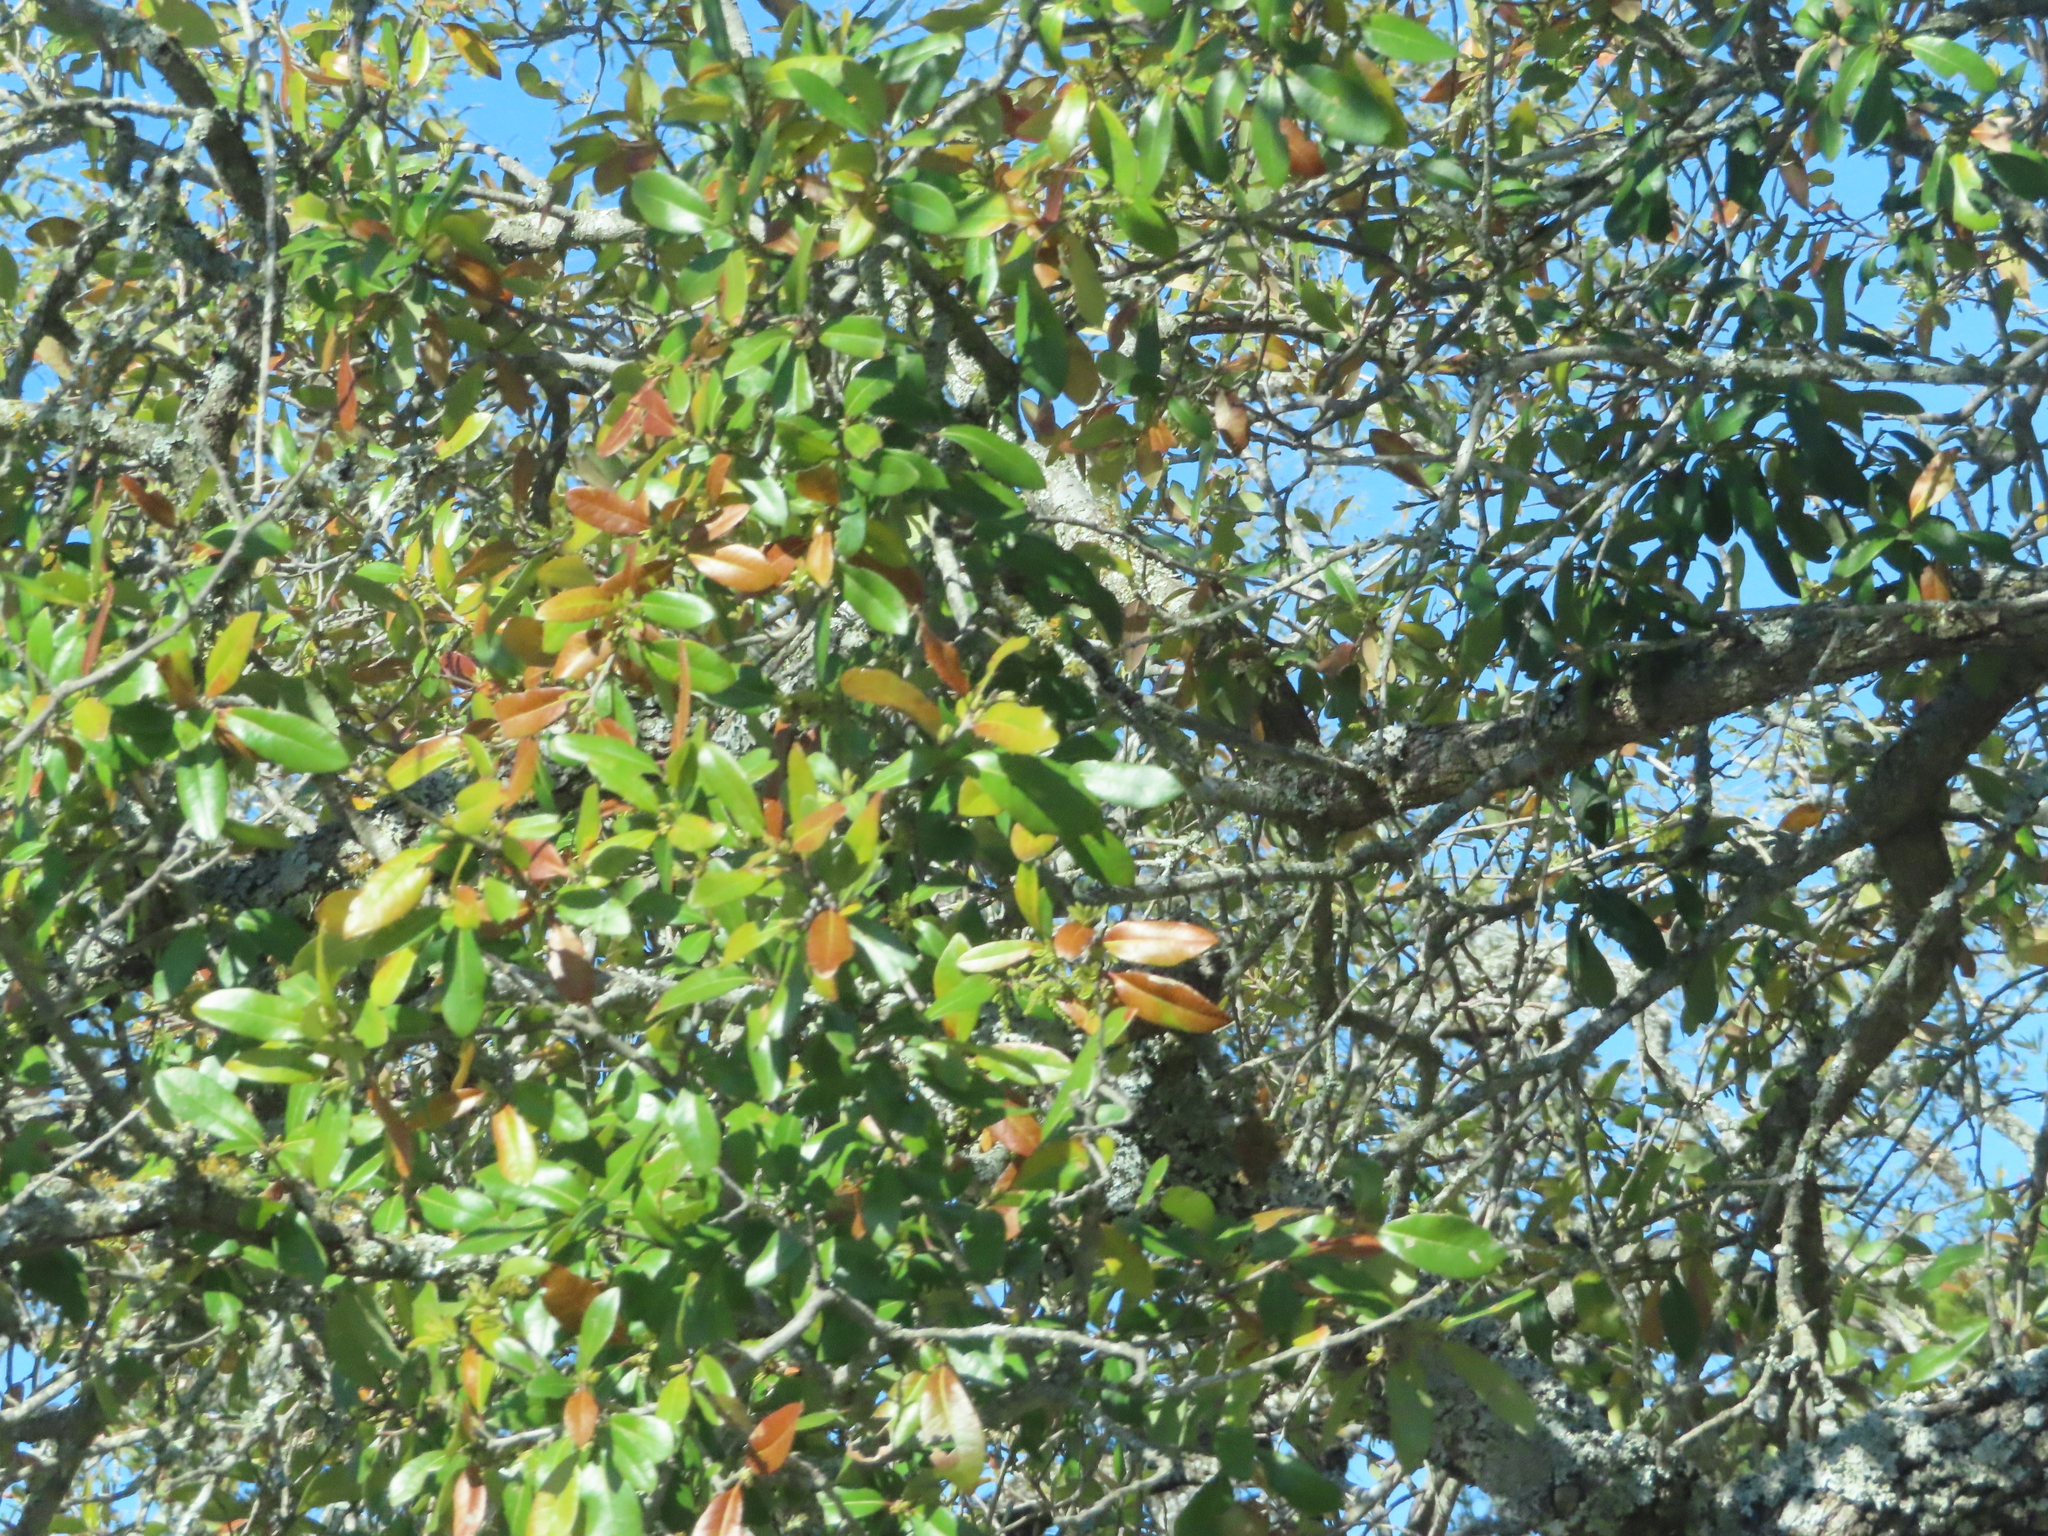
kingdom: Plantae
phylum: Tracheophyta
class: Magnoliopsida
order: Fagales
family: Fagaceae
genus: Quercus
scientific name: Quercus fusiformis
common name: Texas live oak
